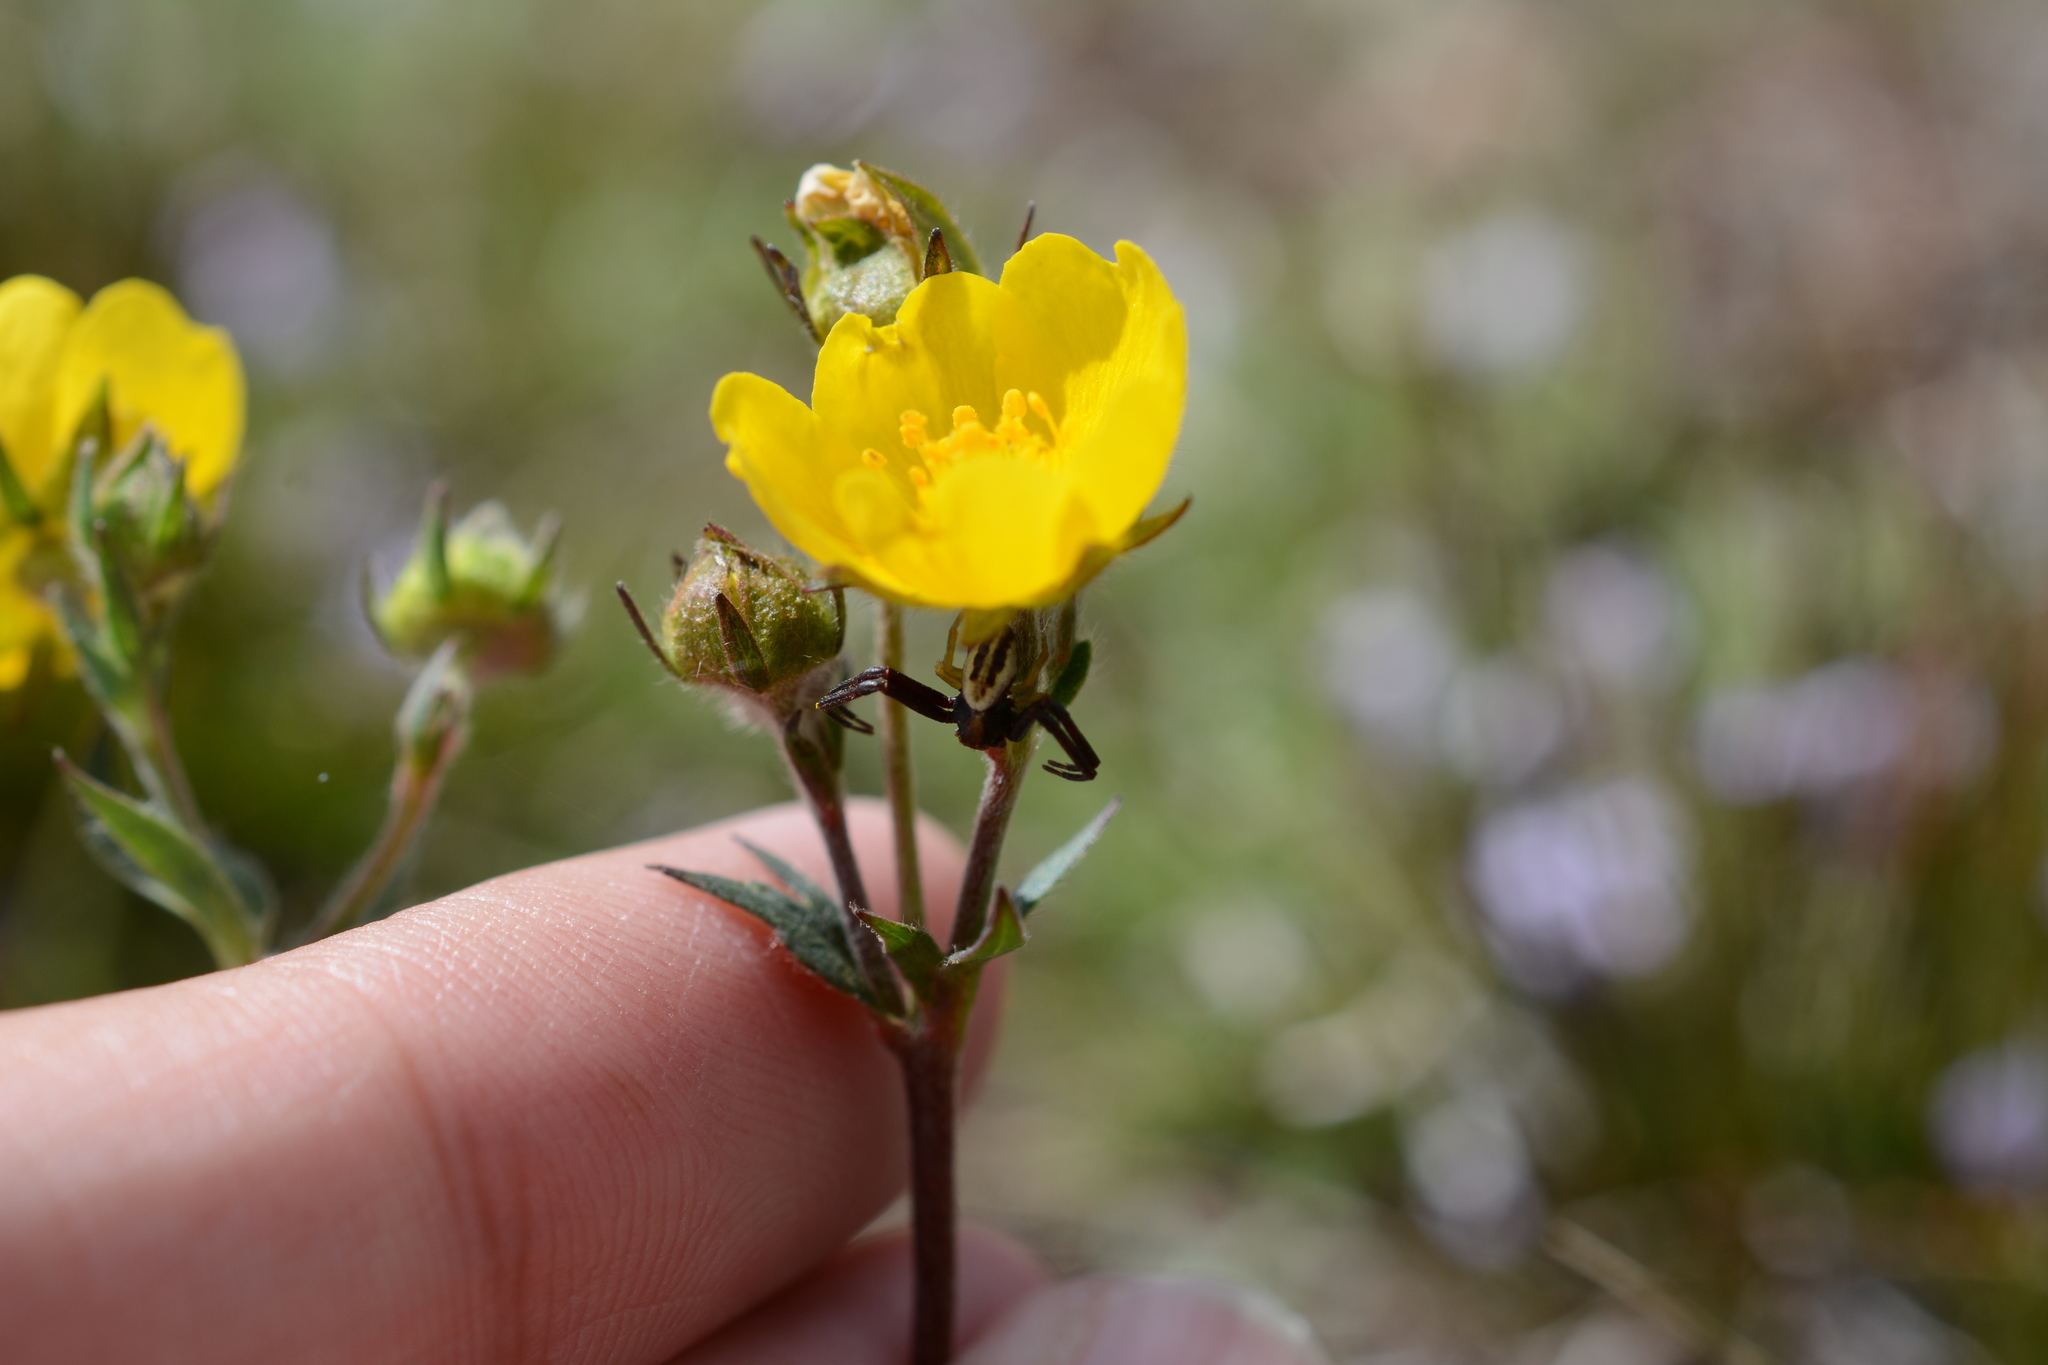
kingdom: Animalia
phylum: Arthropoda
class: Arachnida
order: Araneae
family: Thomisidae
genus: Misumena
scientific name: Misumena vatia
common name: Goldenrod crab spider
